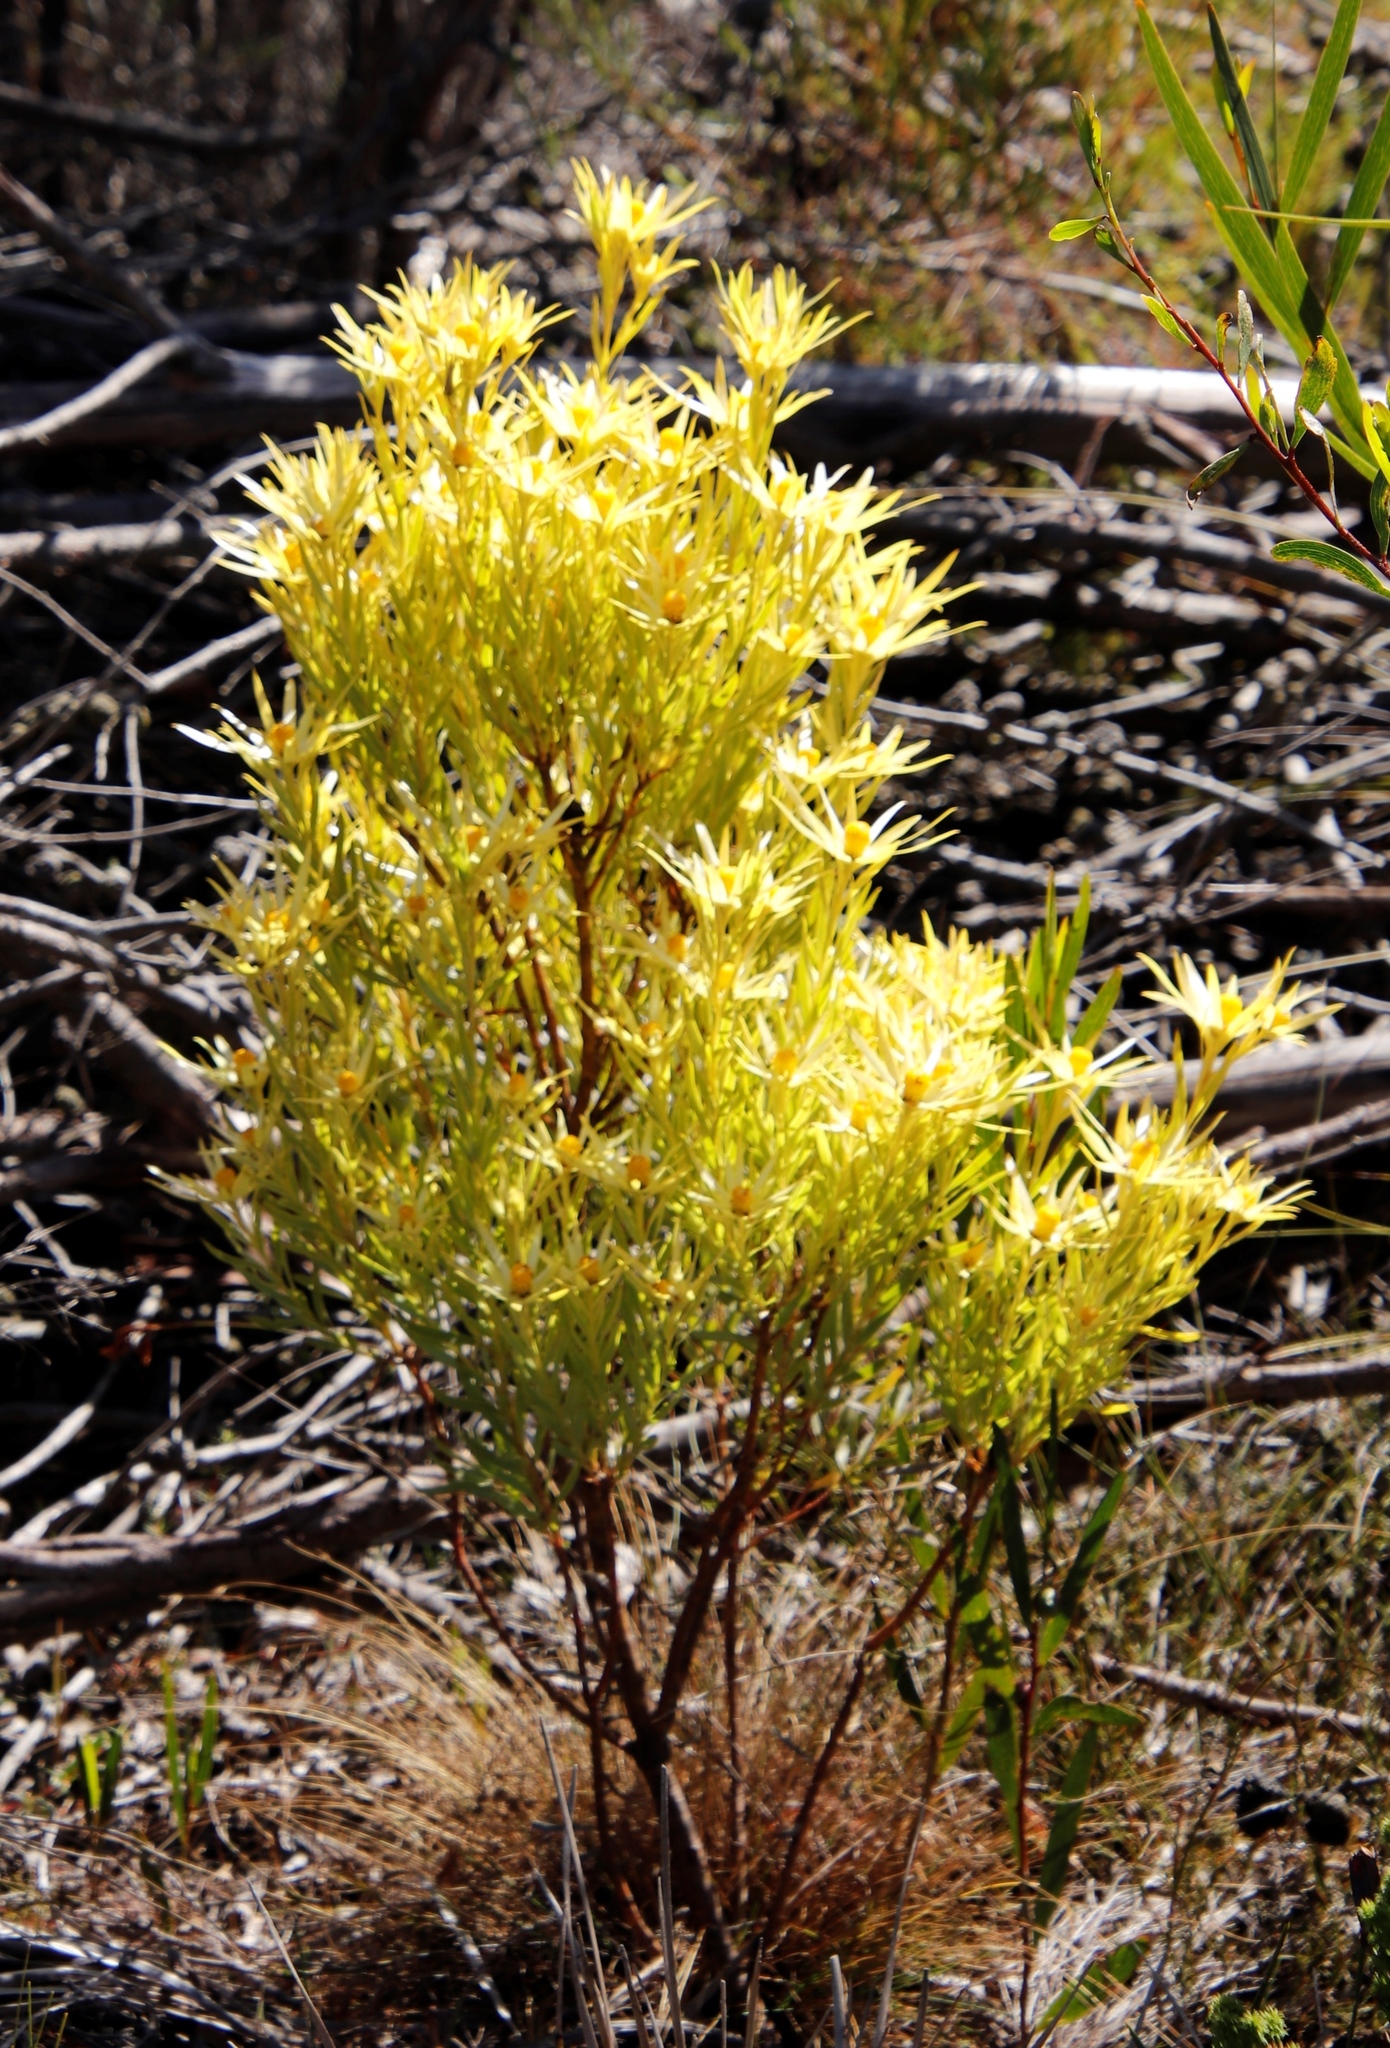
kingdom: Plantae
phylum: Tracheophyta
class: Magnoliopsida
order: Proteales
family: Proteaceae
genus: Leucadendron
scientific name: Leucadendron xanthoconus
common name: Sickle-leaf conebush
